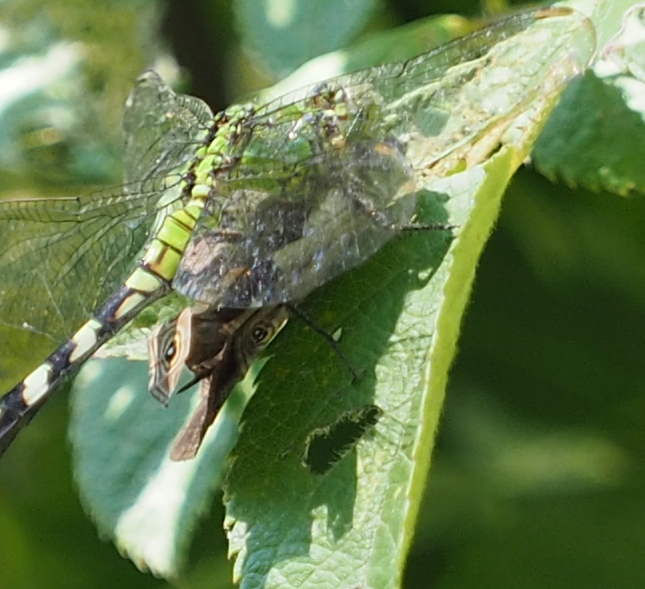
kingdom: Animalia
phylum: Arthropoda
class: Insecta
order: Odonata
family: Libellulidae
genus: Erythemis
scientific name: Erythemis simplicicollis
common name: Eastern pondhawk
